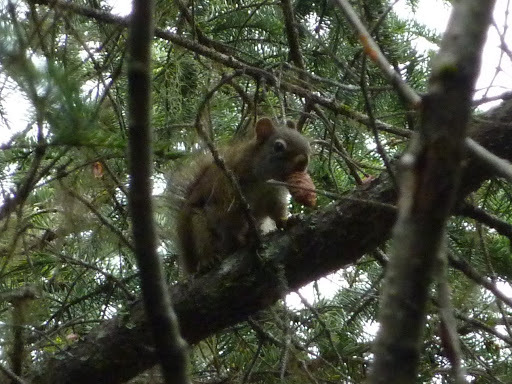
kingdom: Animalia
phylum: Chordata
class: Mammalia
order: Rodentia
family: Sciuridae
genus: Tamiasciurus
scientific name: Tamiasciurus hudsonicus
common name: Red squirrel
